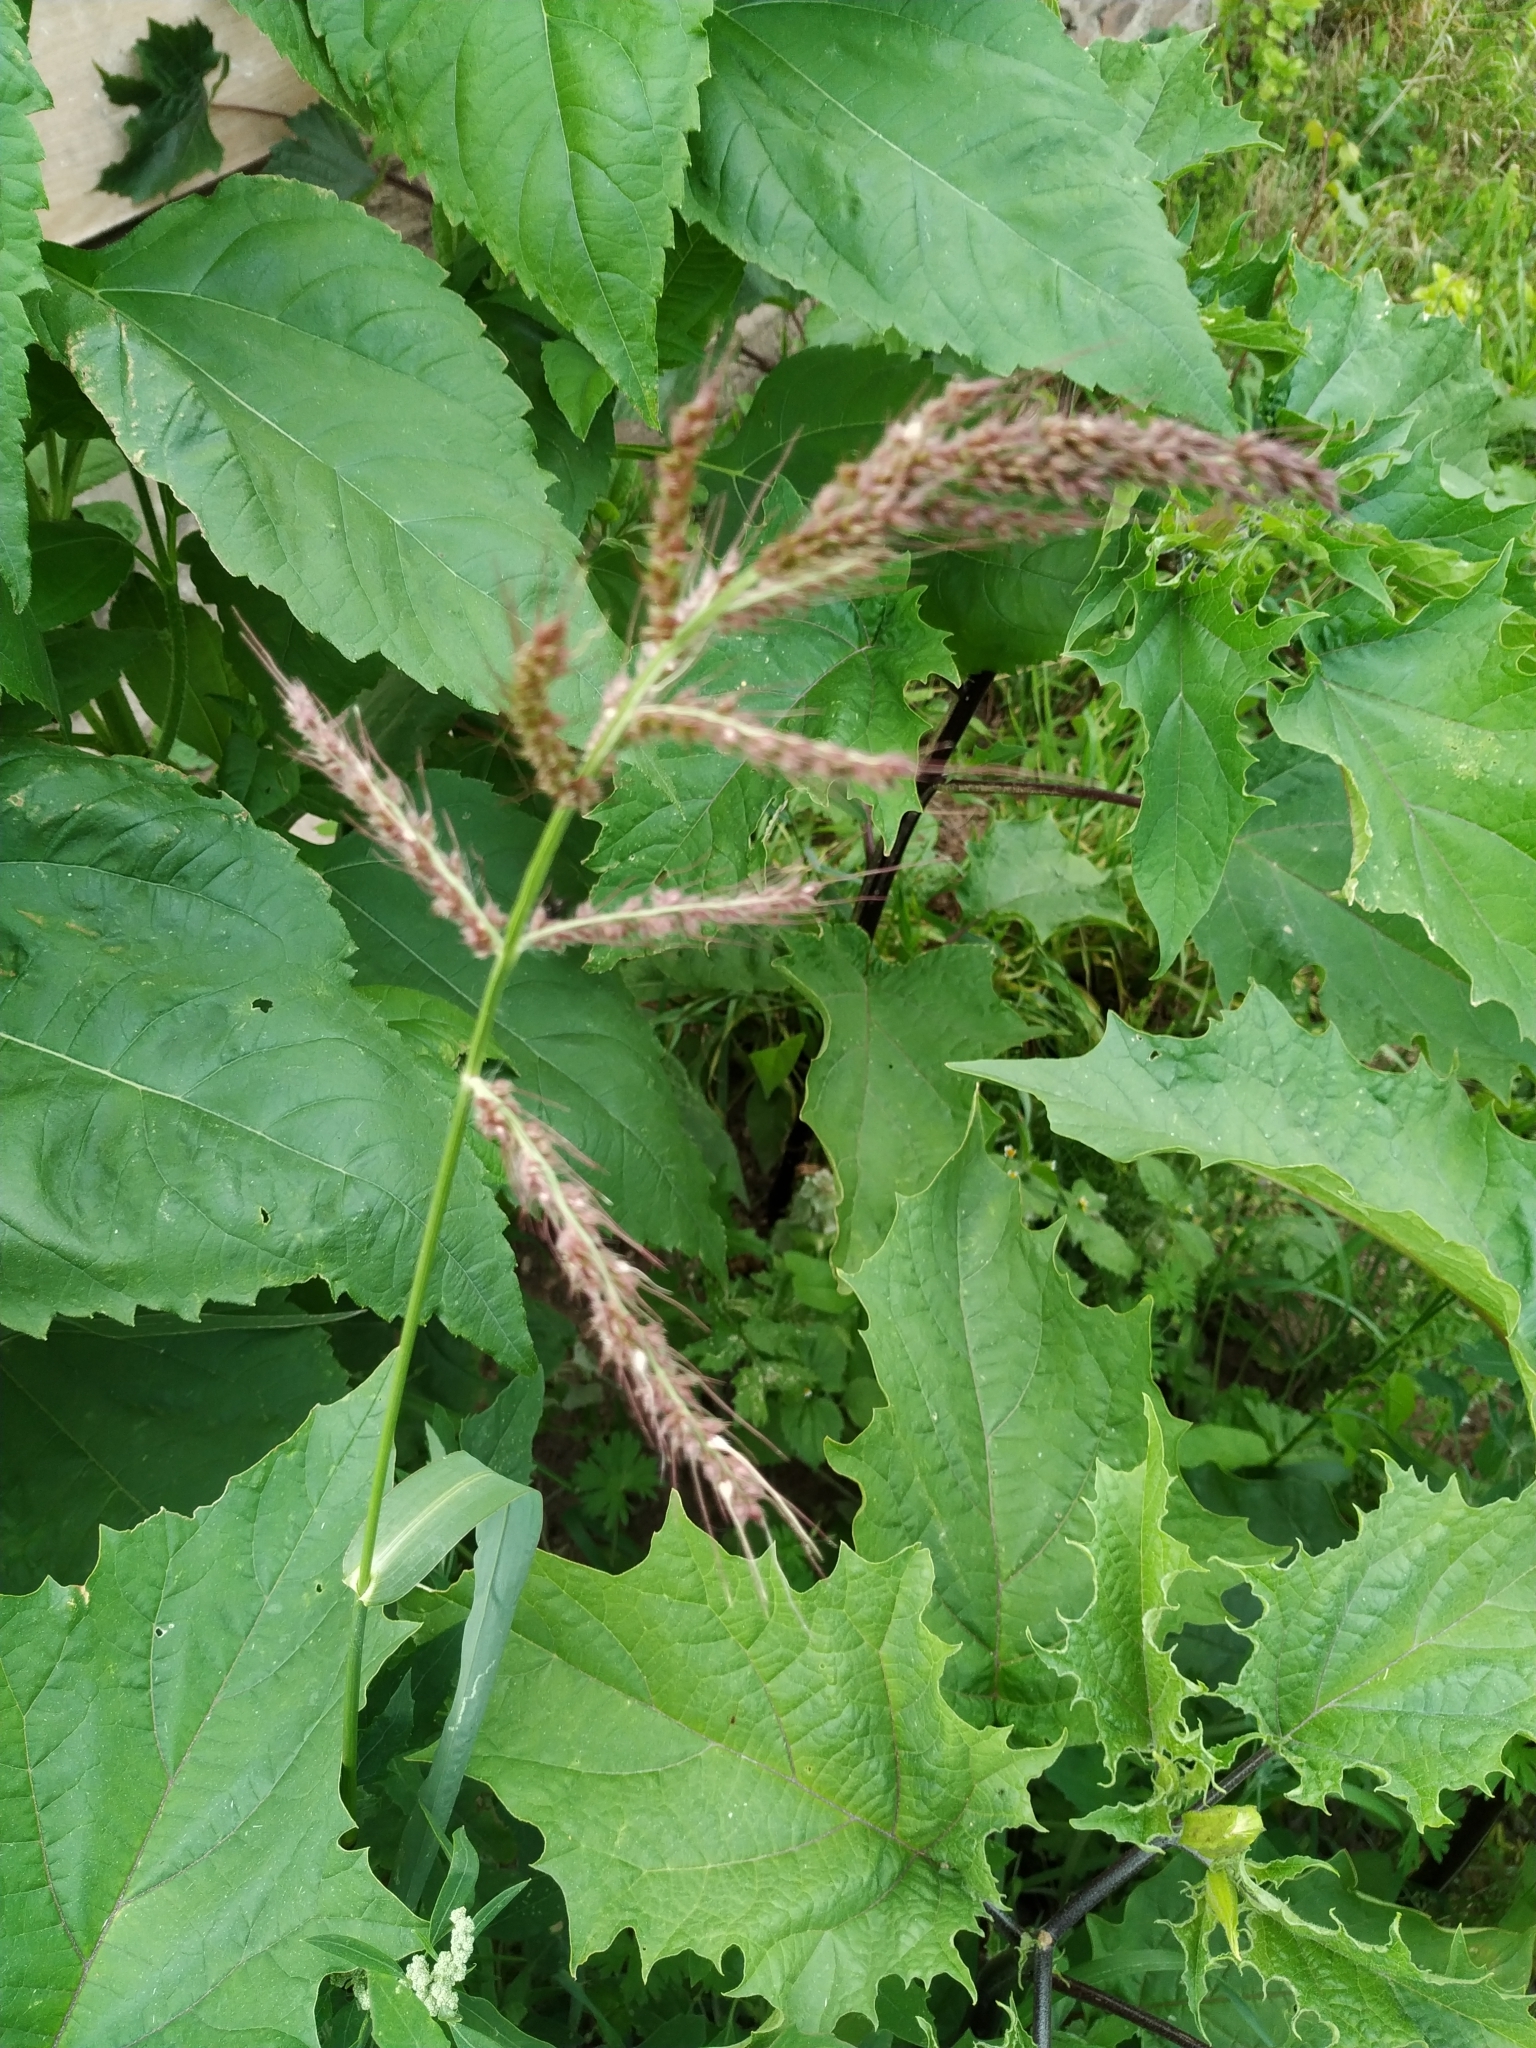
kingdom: Plantae
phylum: Tracheophyta
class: Liliopsida
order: Poales
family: Poaceae
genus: Echinochloa
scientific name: Echinochloa crus-galli
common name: Cockspur
